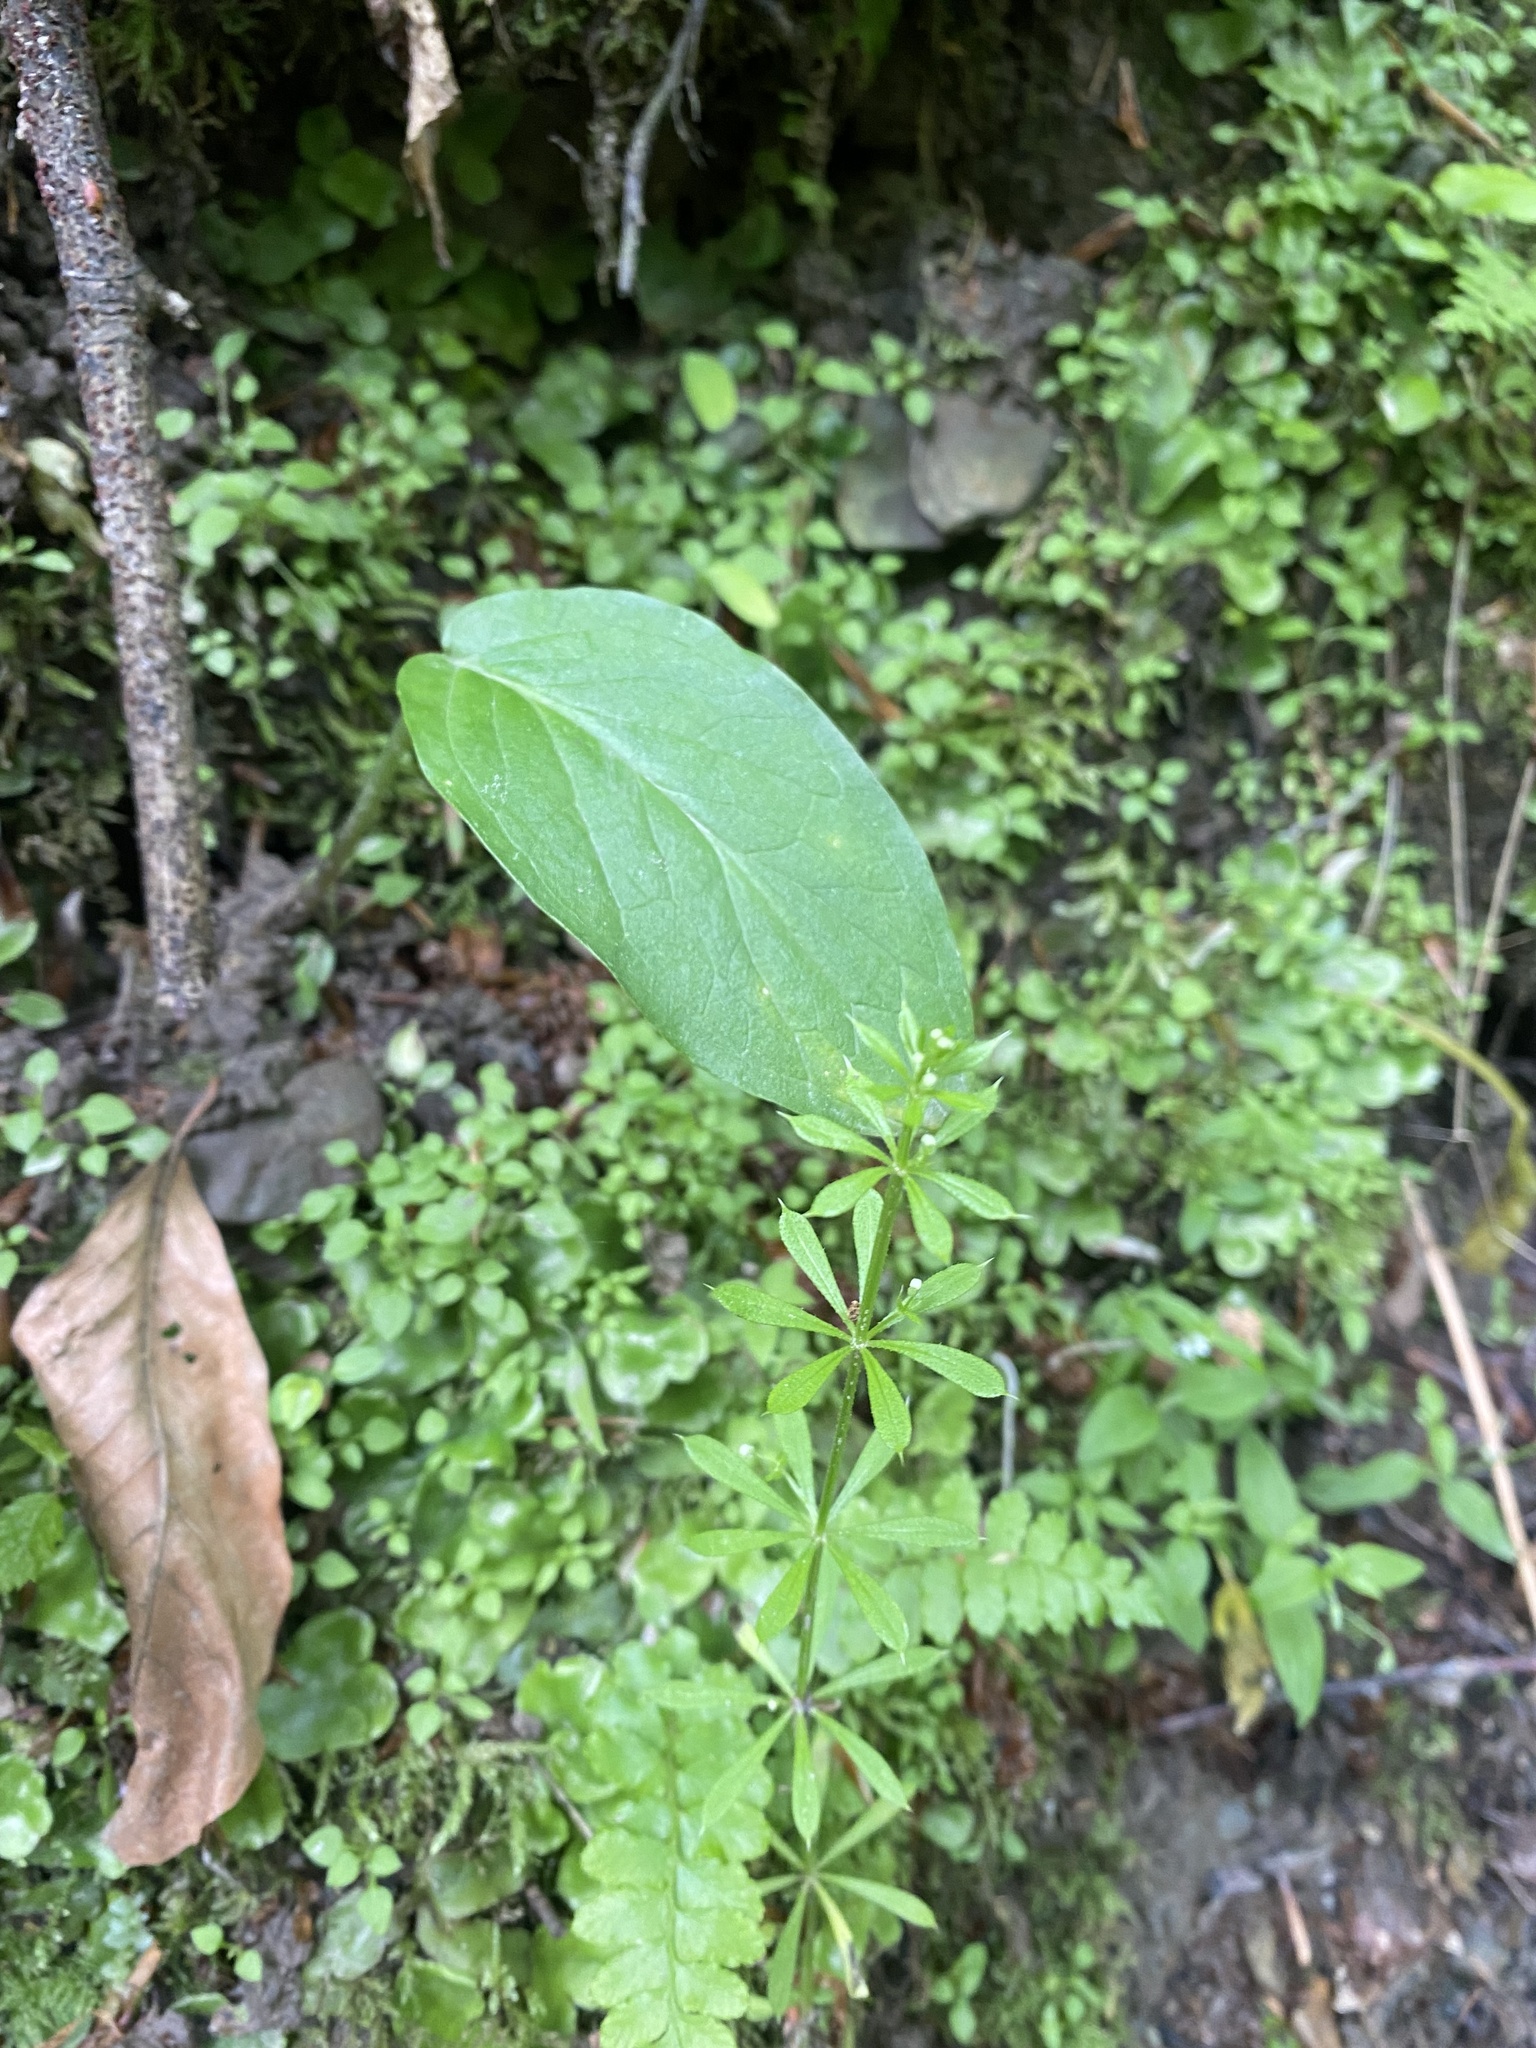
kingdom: Plantae
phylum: Tracheophyta
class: Magnoliopsida
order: Gentianales
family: Rubiaceae
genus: Galium
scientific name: Galium aparine
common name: Cleavers
